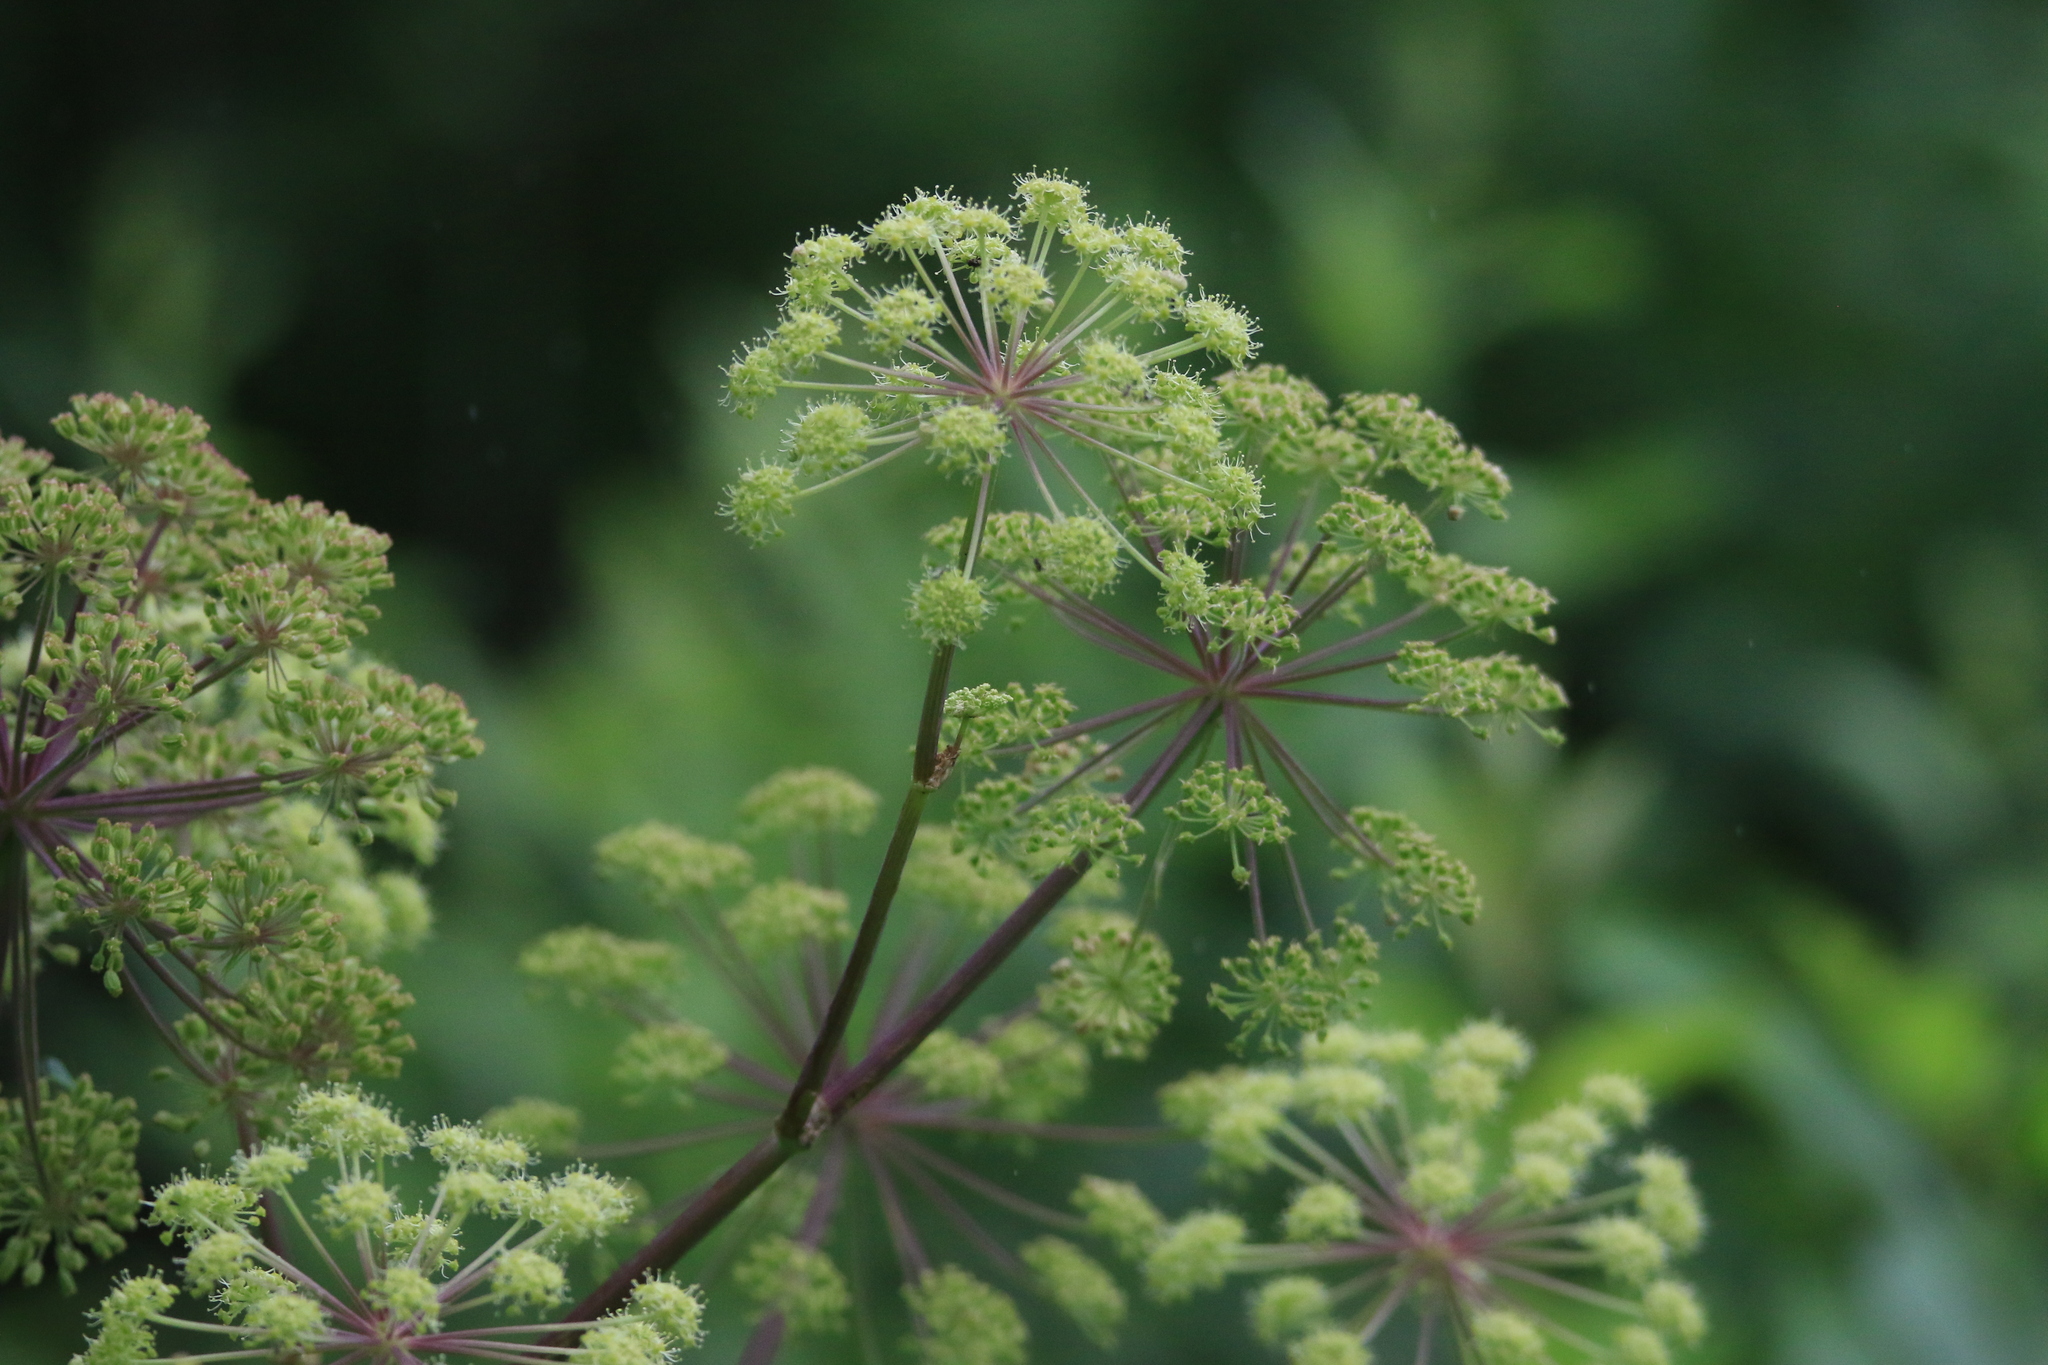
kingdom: Plantae
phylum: Tracheophyta
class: Magnoliopsida
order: Apiales
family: Apiaceae
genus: Angelica
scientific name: Angelica decurrens
